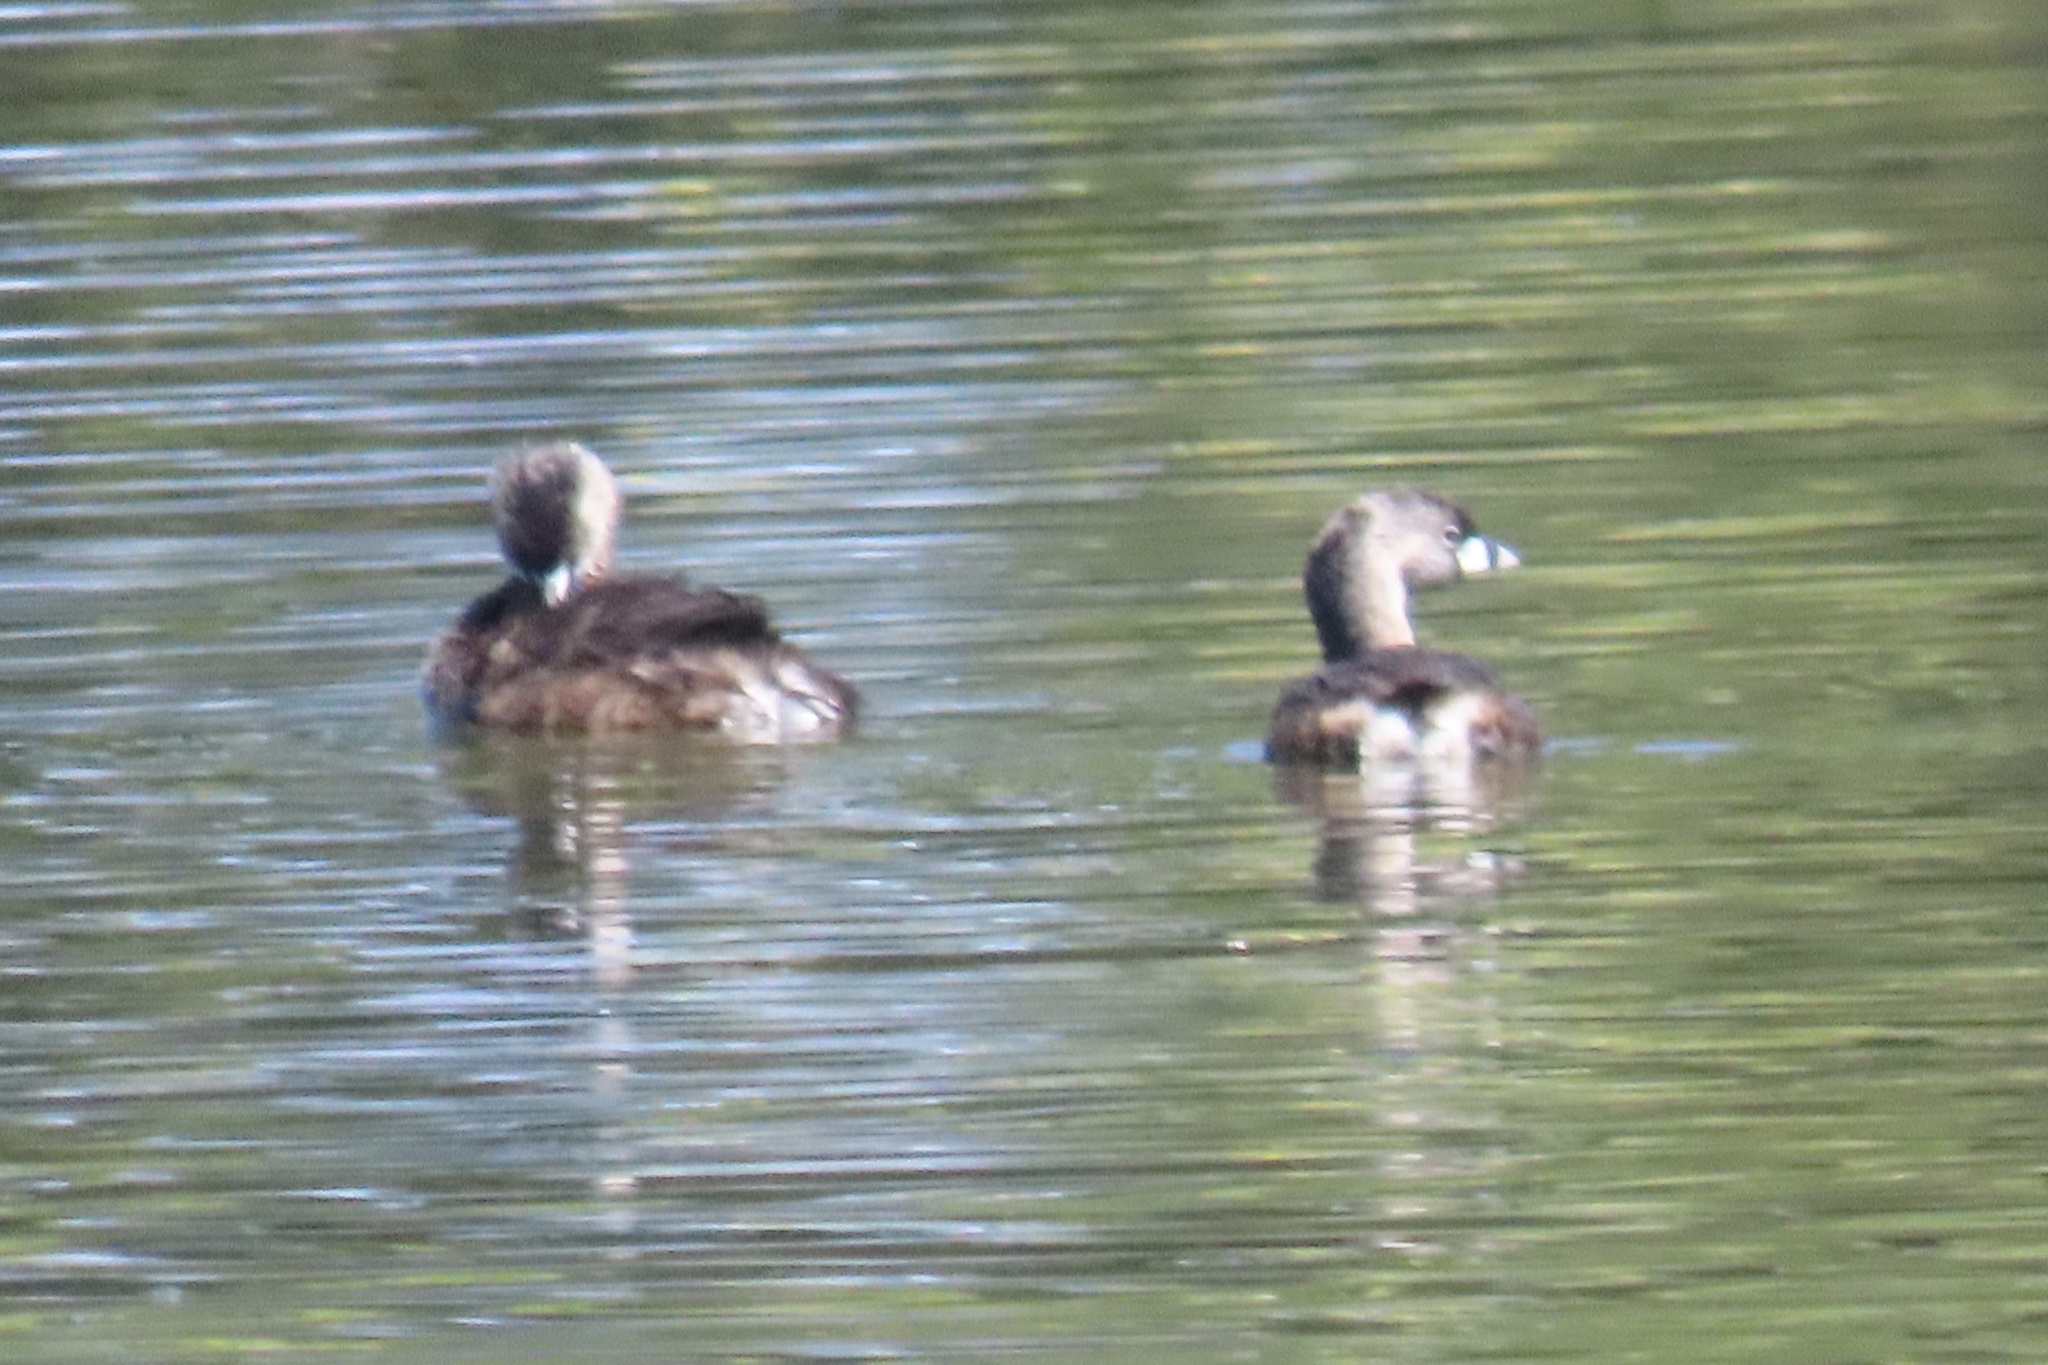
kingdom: Animalia
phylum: Chordata
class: Aves
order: Podicipediformes
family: Podicipedidae
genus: Podilymbus
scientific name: Podilymbus podiceps
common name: Pied-billed grebe
